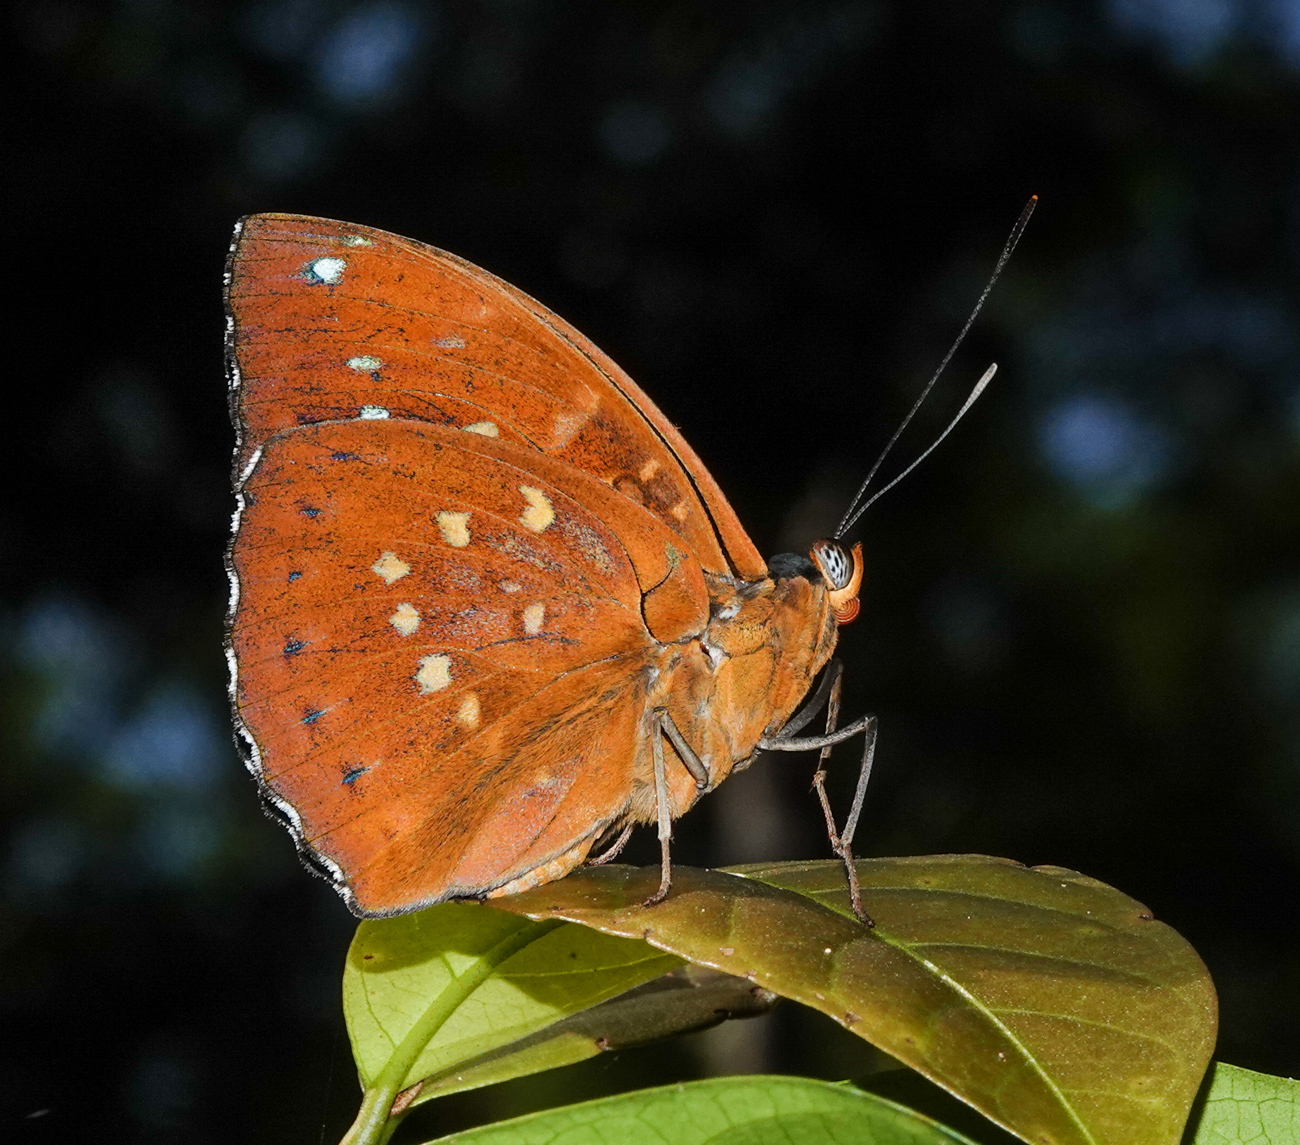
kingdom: Animalia
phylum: Arthropoda
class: Insecta
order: Lepidoptera
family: Nymphalidae
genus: Lexias
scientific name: Lexias dirtea
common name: Black-tipped archduke
